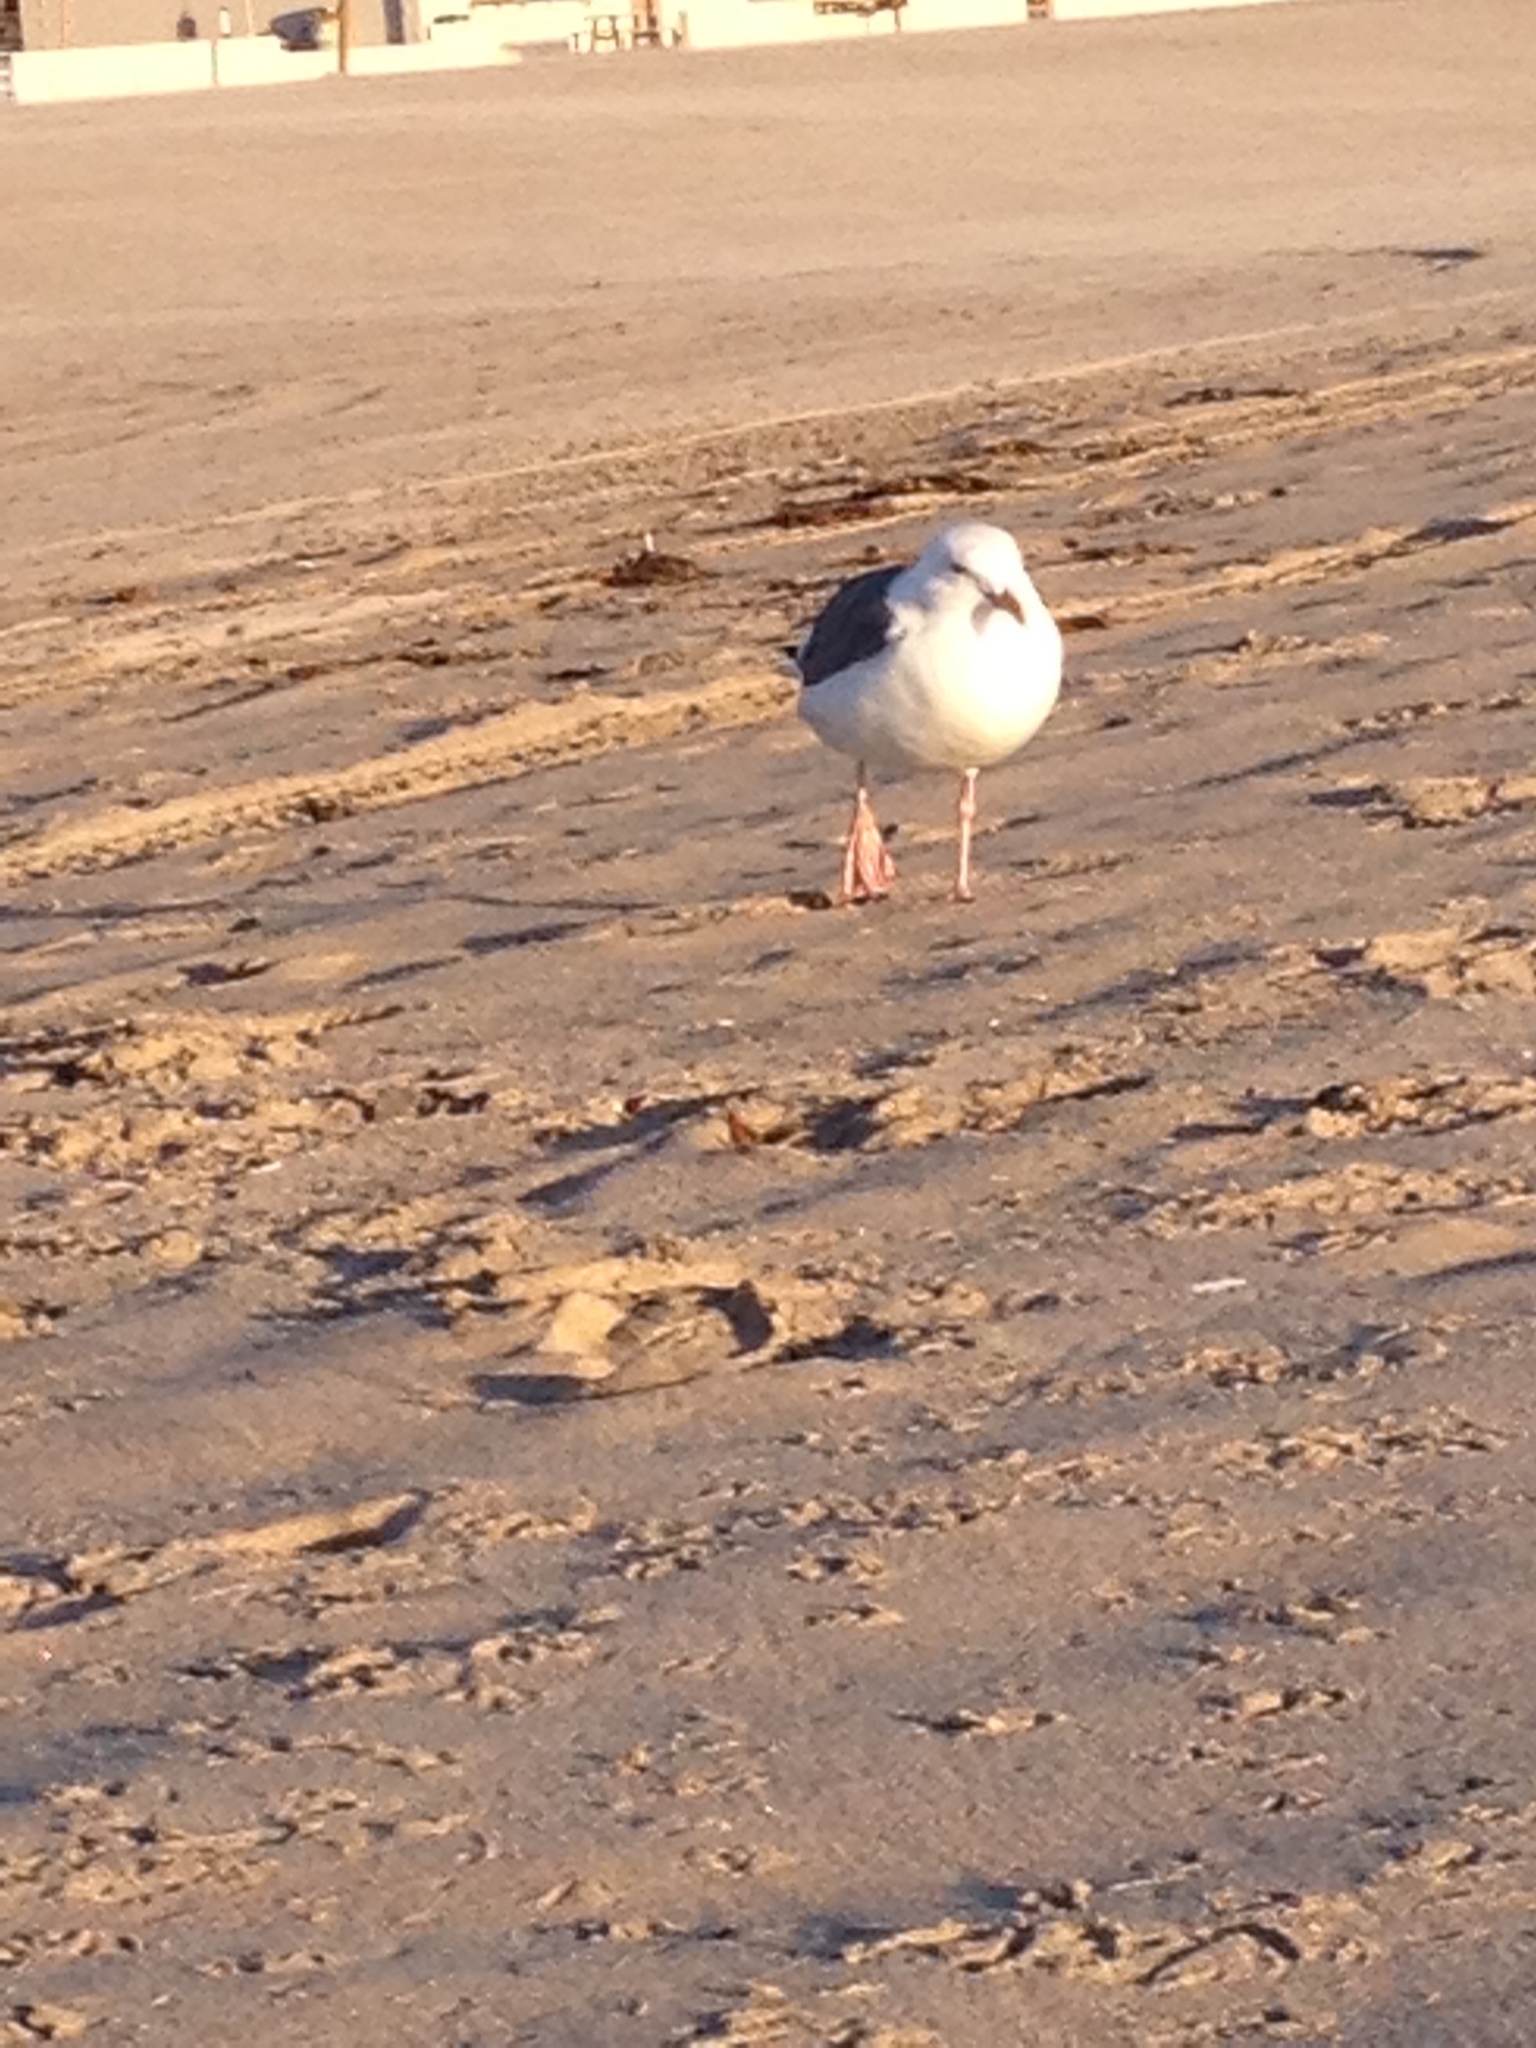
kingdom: Animalia
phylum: Chordata
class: Aves
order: Charadriiformes
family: Laridae
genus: Larus
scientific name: Larus occidentalis
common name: Western gull
